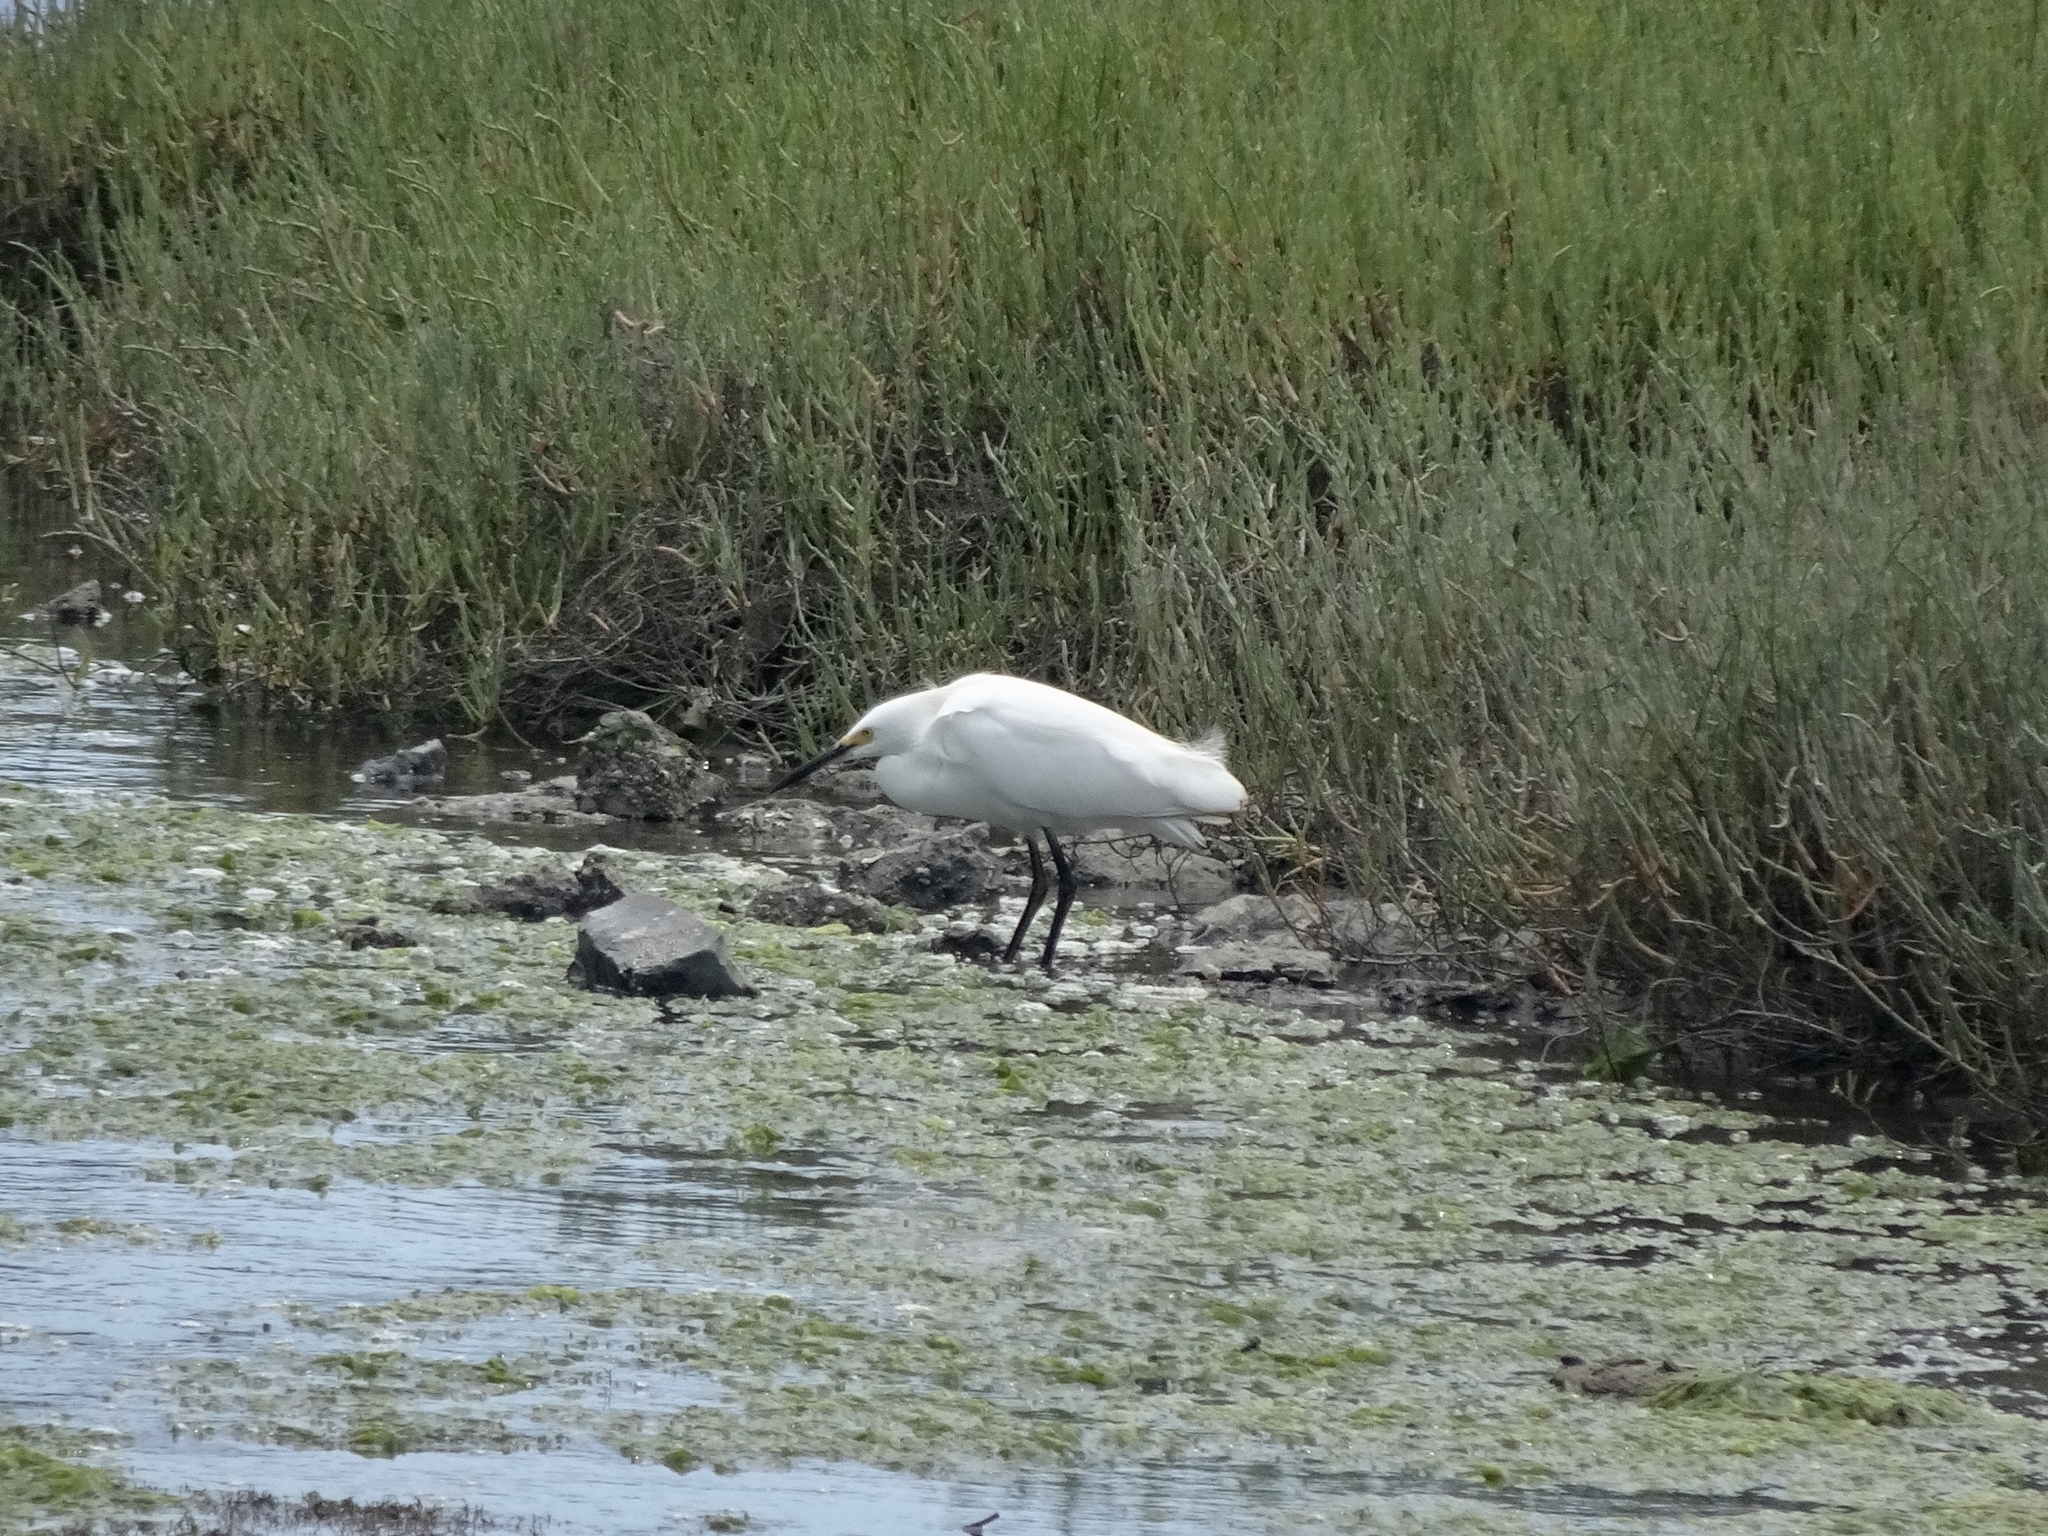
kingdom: Animalia
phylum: Chordata
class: Aves
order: Pelecaniformes
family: Ardeidae
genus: Egretta
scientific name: Egretta thula
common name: Snowy egret
